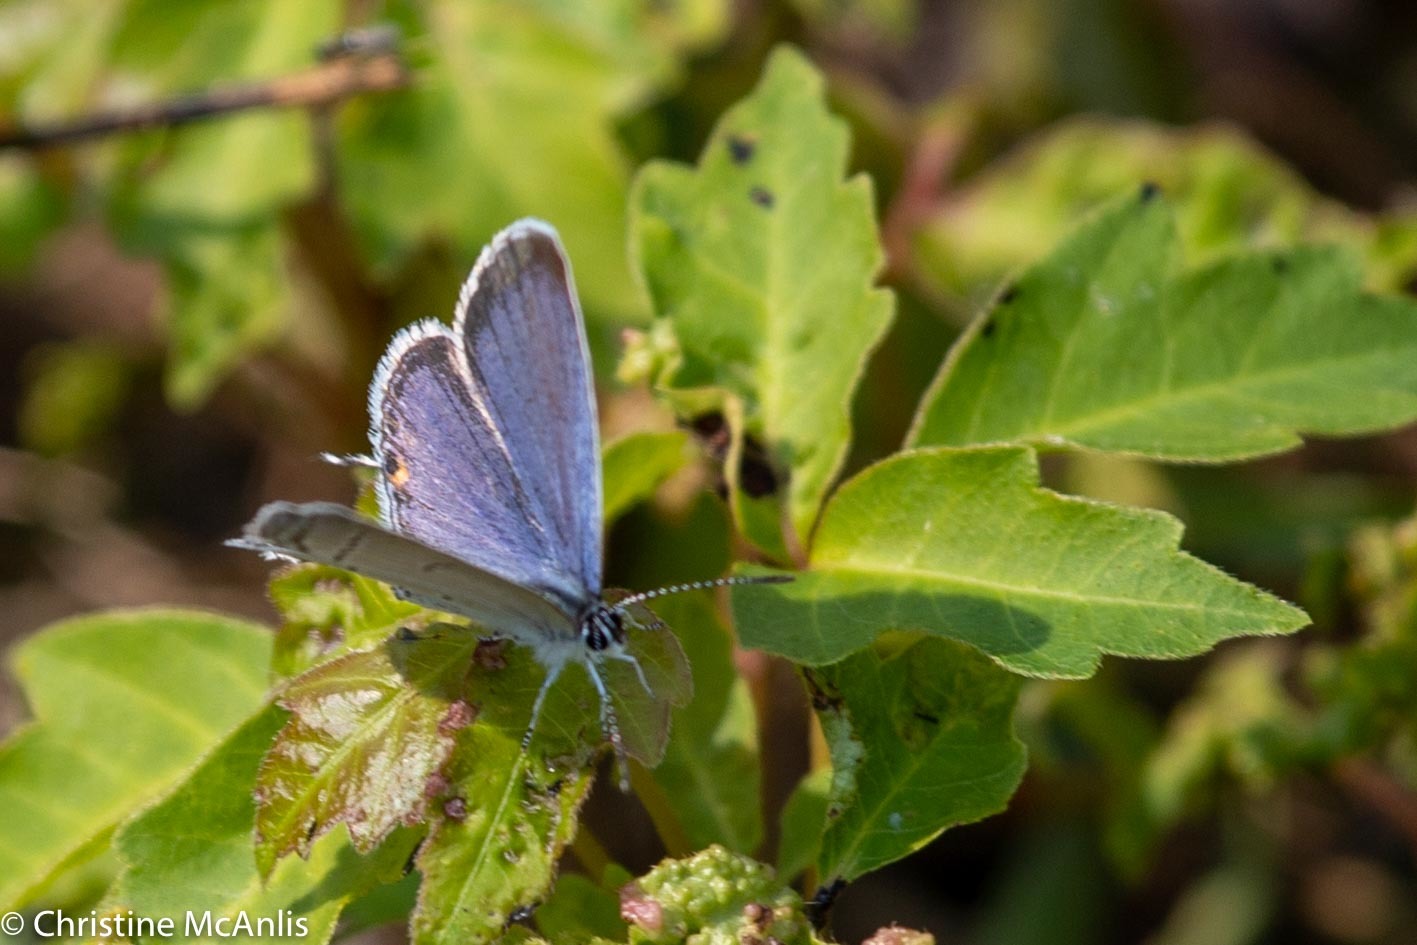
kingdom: Animalia
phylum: Arthropoda
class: Insecta
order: Lepidoptera
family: Lycaenidae
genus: Elkalyce
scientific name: Elkalyce comyntas
